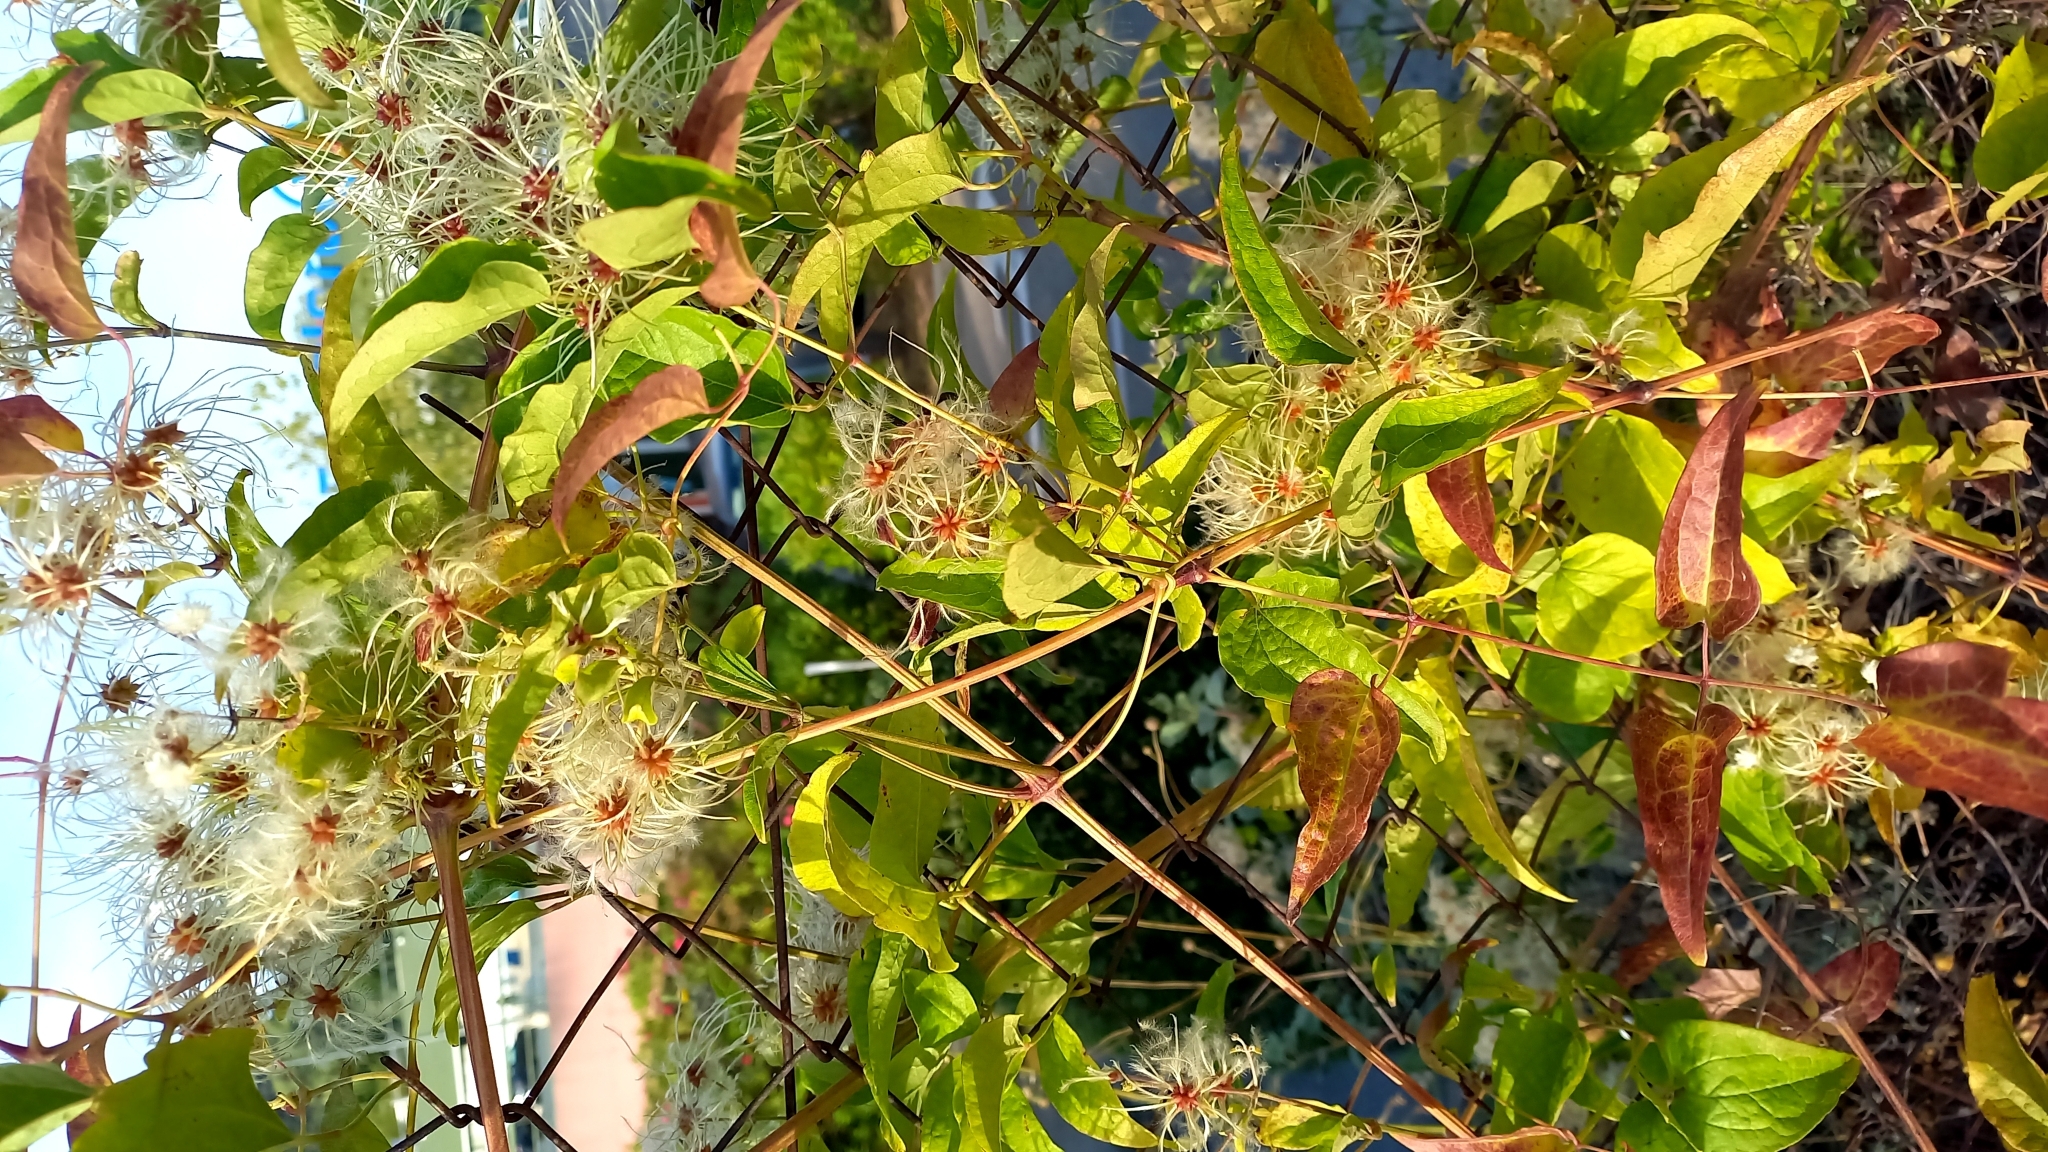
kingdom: Plantae
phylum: Tracheophyta
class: Magnoliopsida
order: Ranunculales
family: Ranunculaceae
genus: Clematis
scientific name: Clematis vitalba
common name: Evergreen clematis
